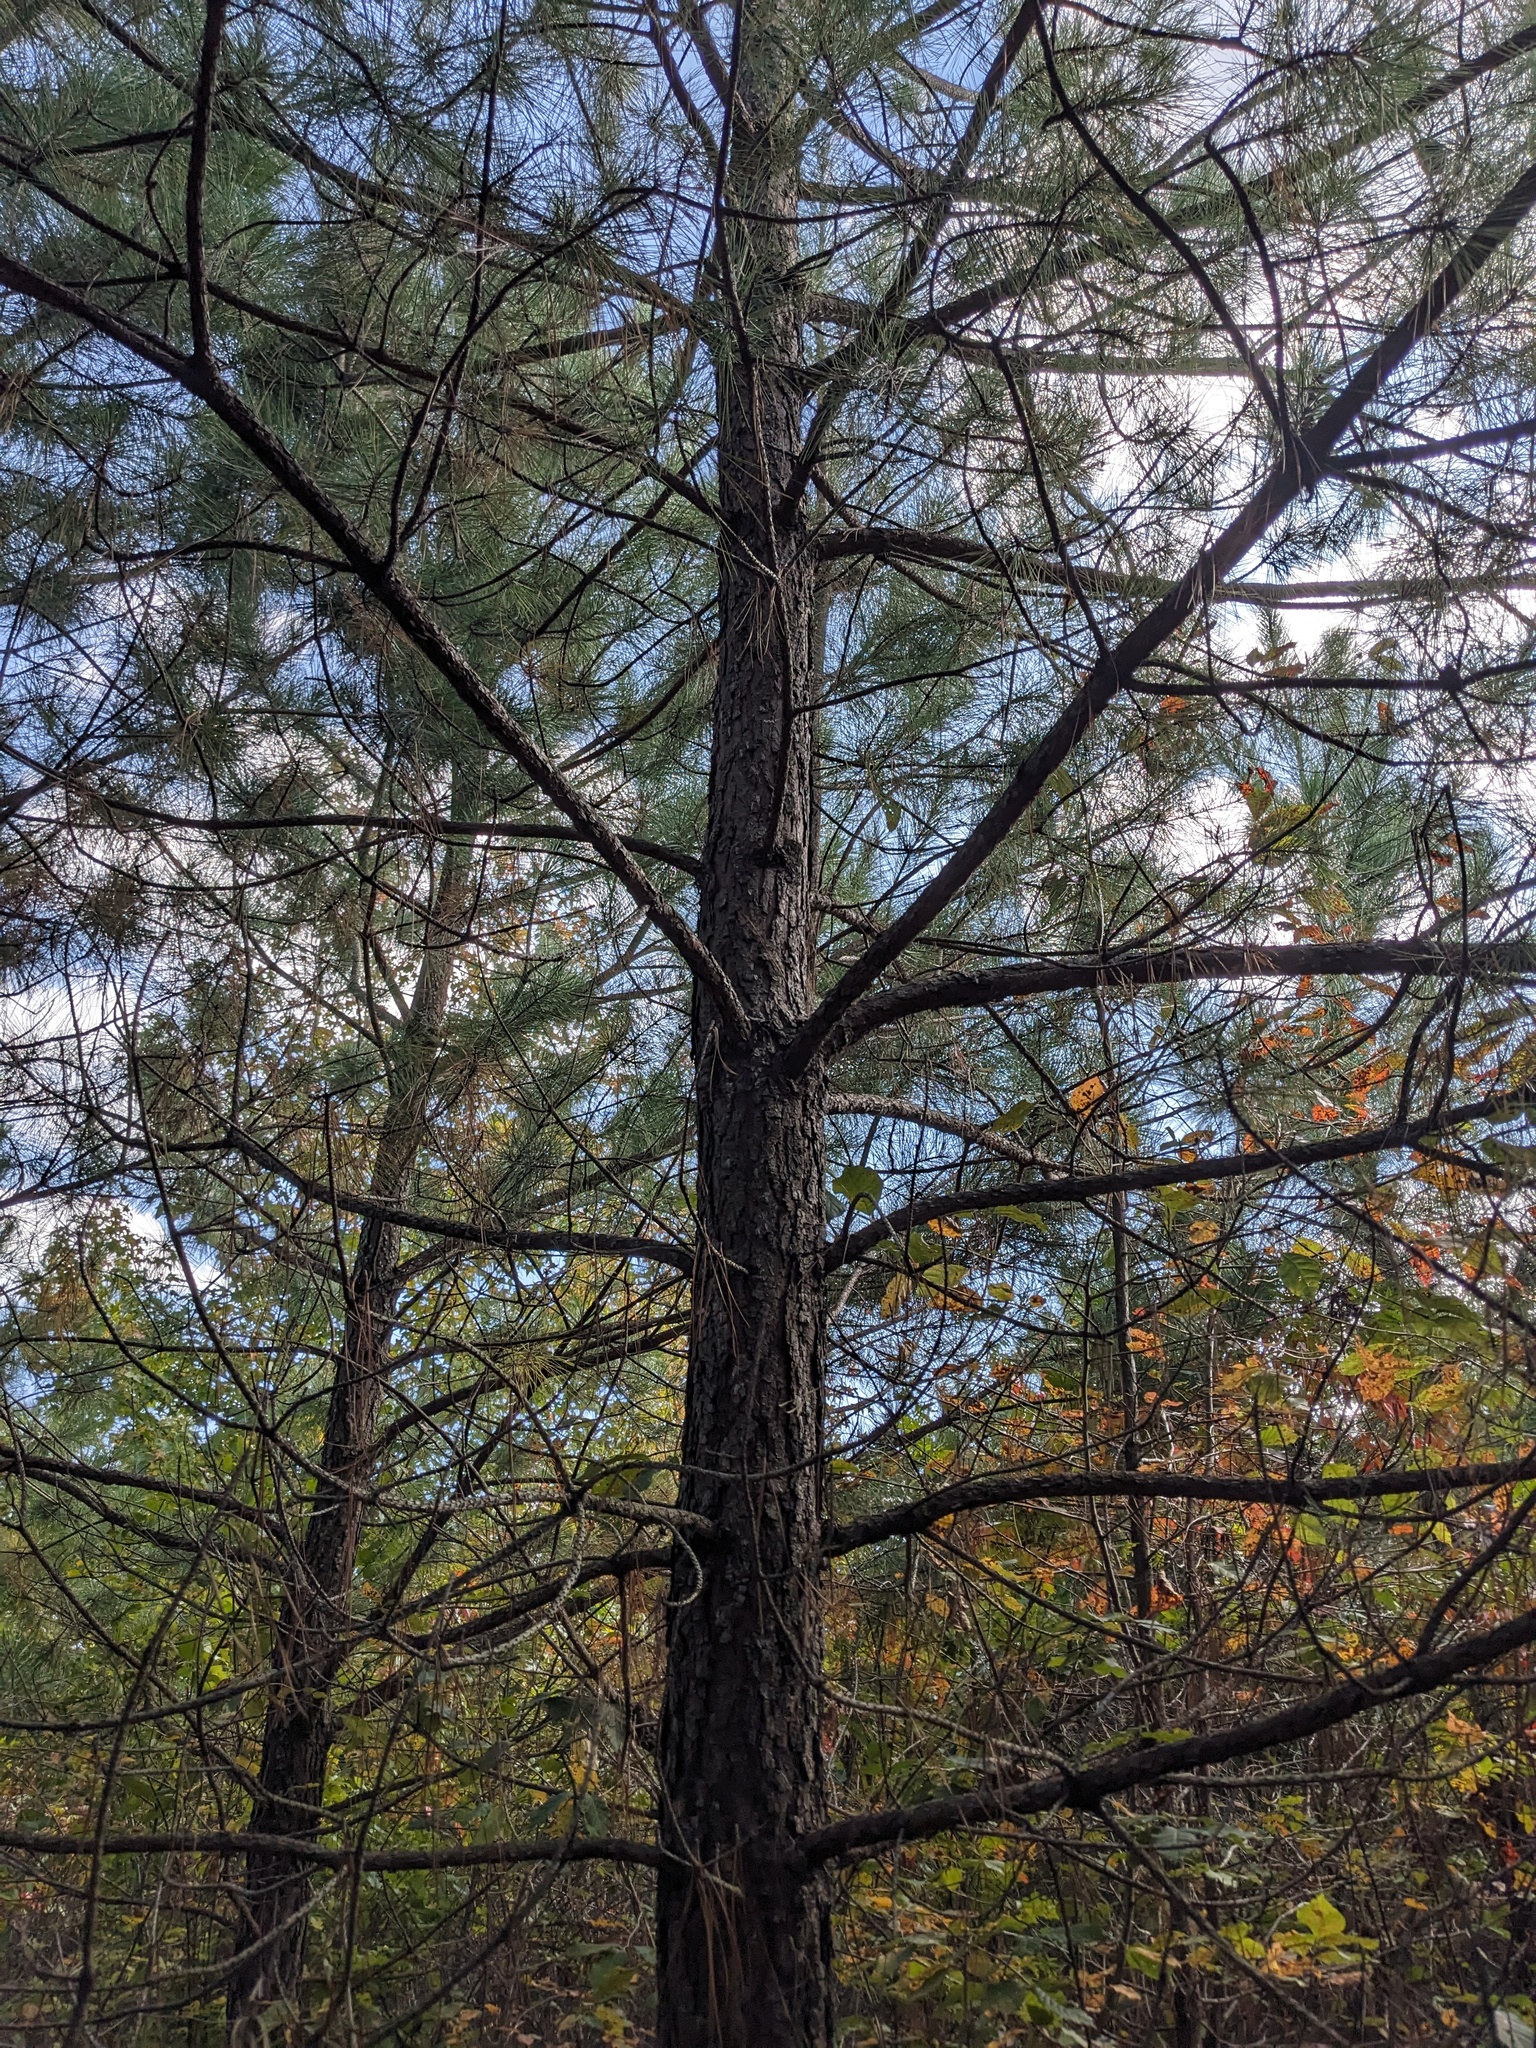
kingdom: Plantae
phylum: Tracheophyta
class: Pinopsida
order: Pinales
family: Pinaceae
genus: Pinus
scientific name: Pinus taeda
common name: Loblolly pine
